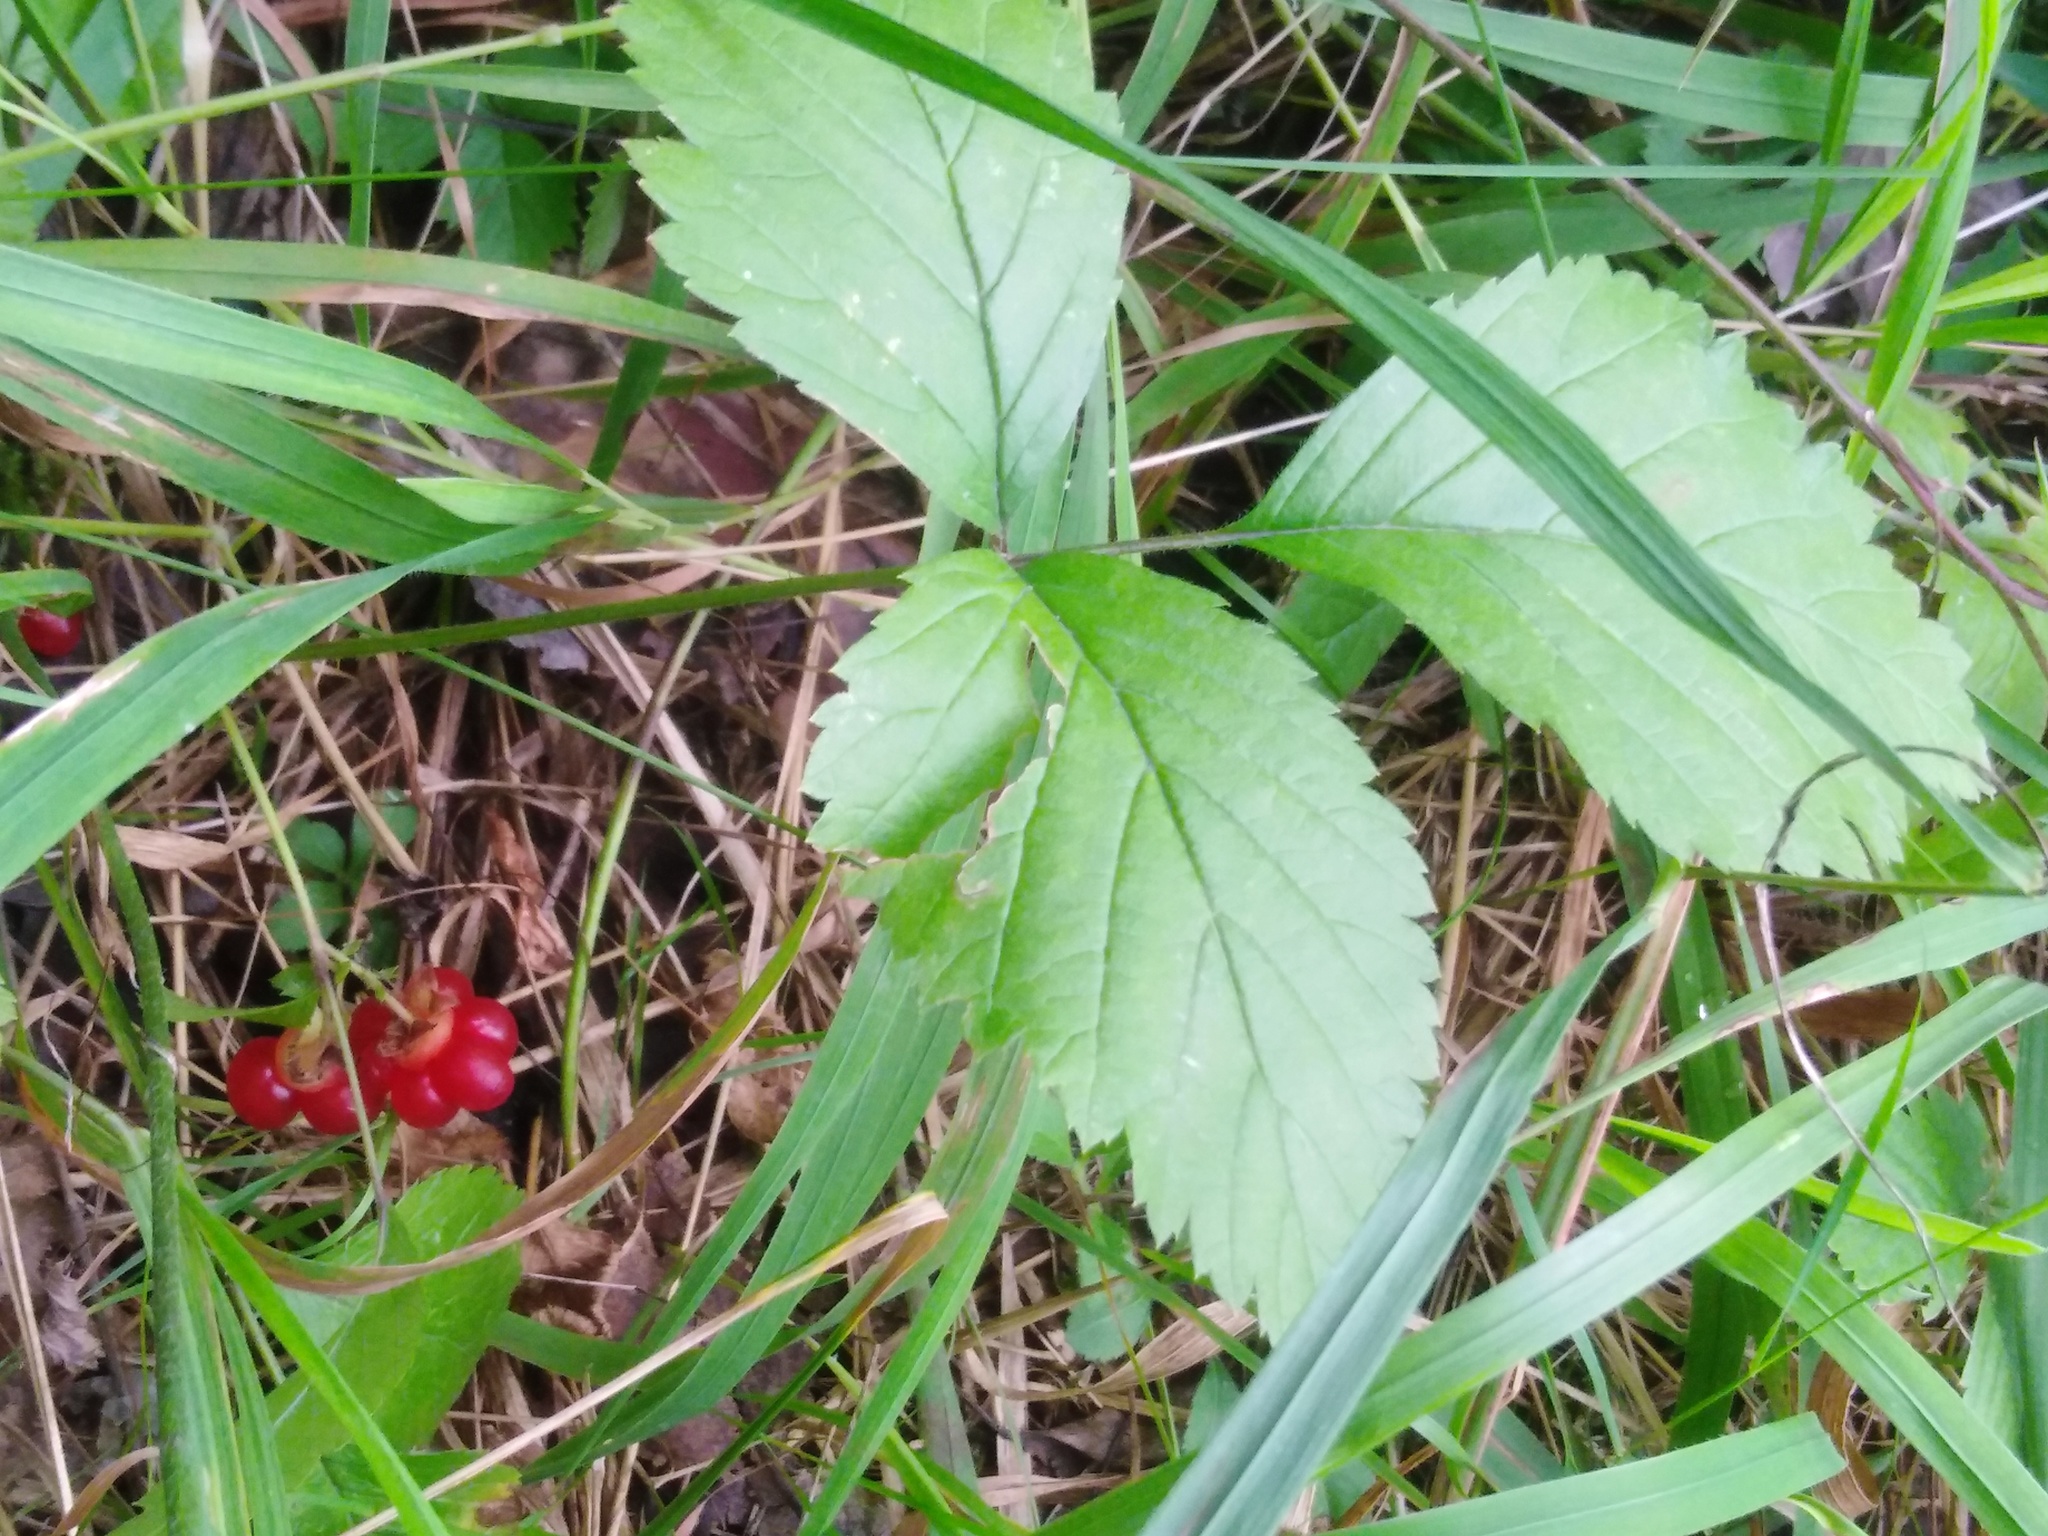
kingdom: Plantae
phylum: Tracheophyta
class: Magnoliopsida
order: Rosales
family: Rosaceae
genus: Rubus
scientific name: Rubus saxatilis
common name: Stone bramble
